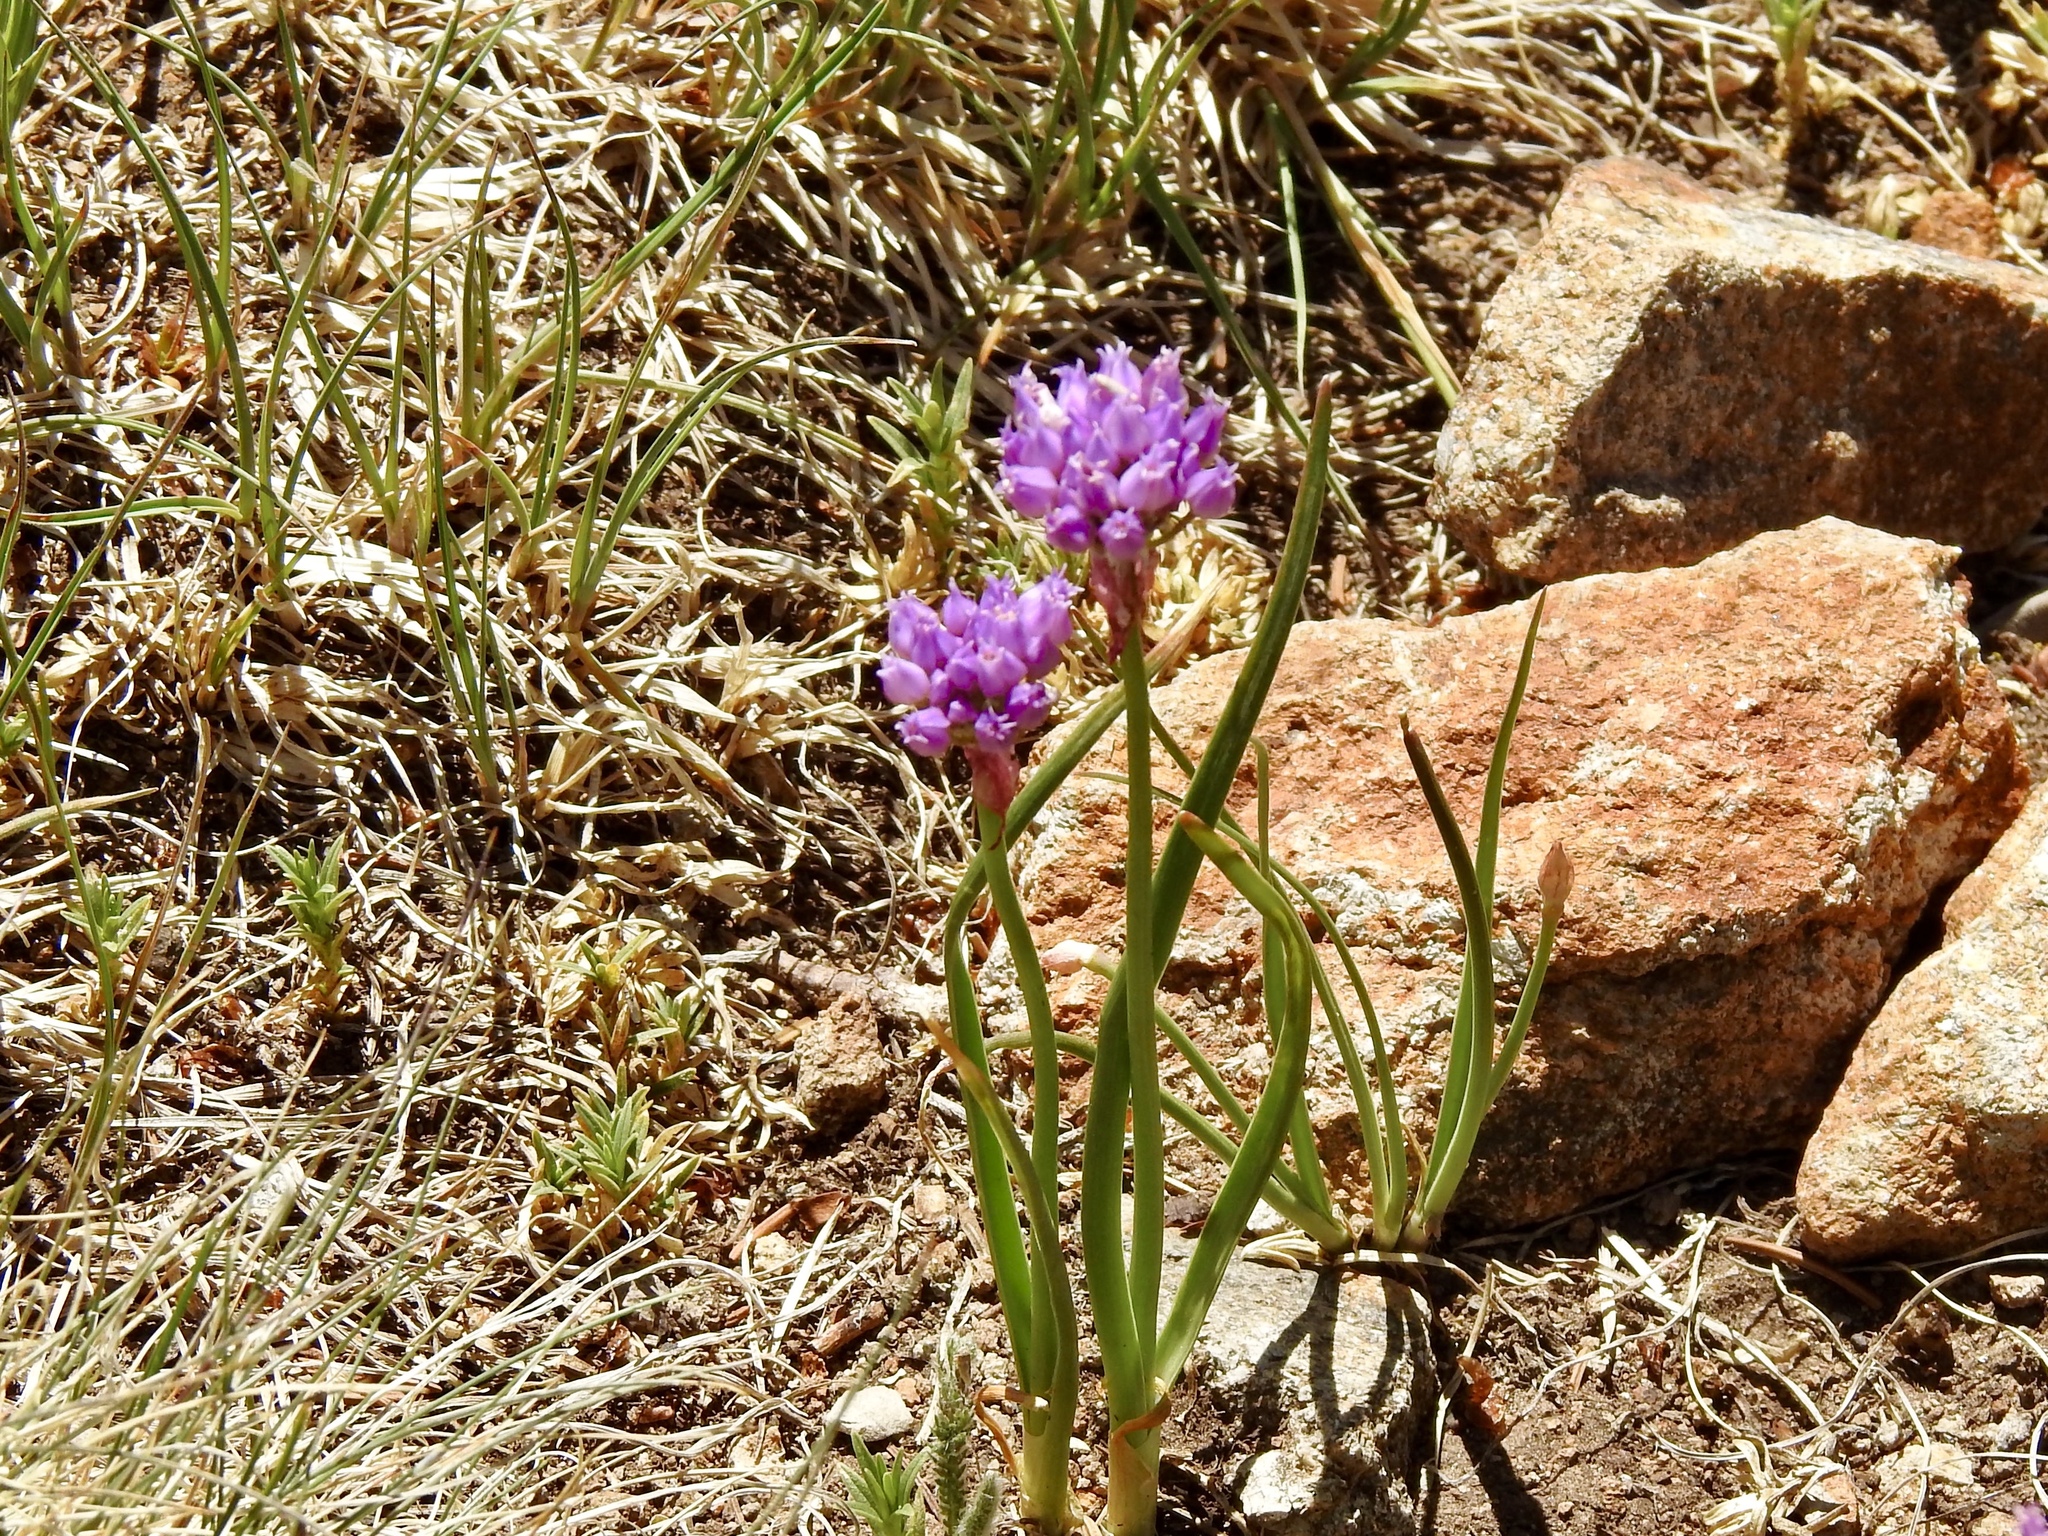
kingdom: Plantae
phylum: Tracheophyta
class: Liliopsida
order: Asparagales
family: Amaryllidaceae
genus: Allium
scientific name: Allium geyeri
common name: Geyer's onion
